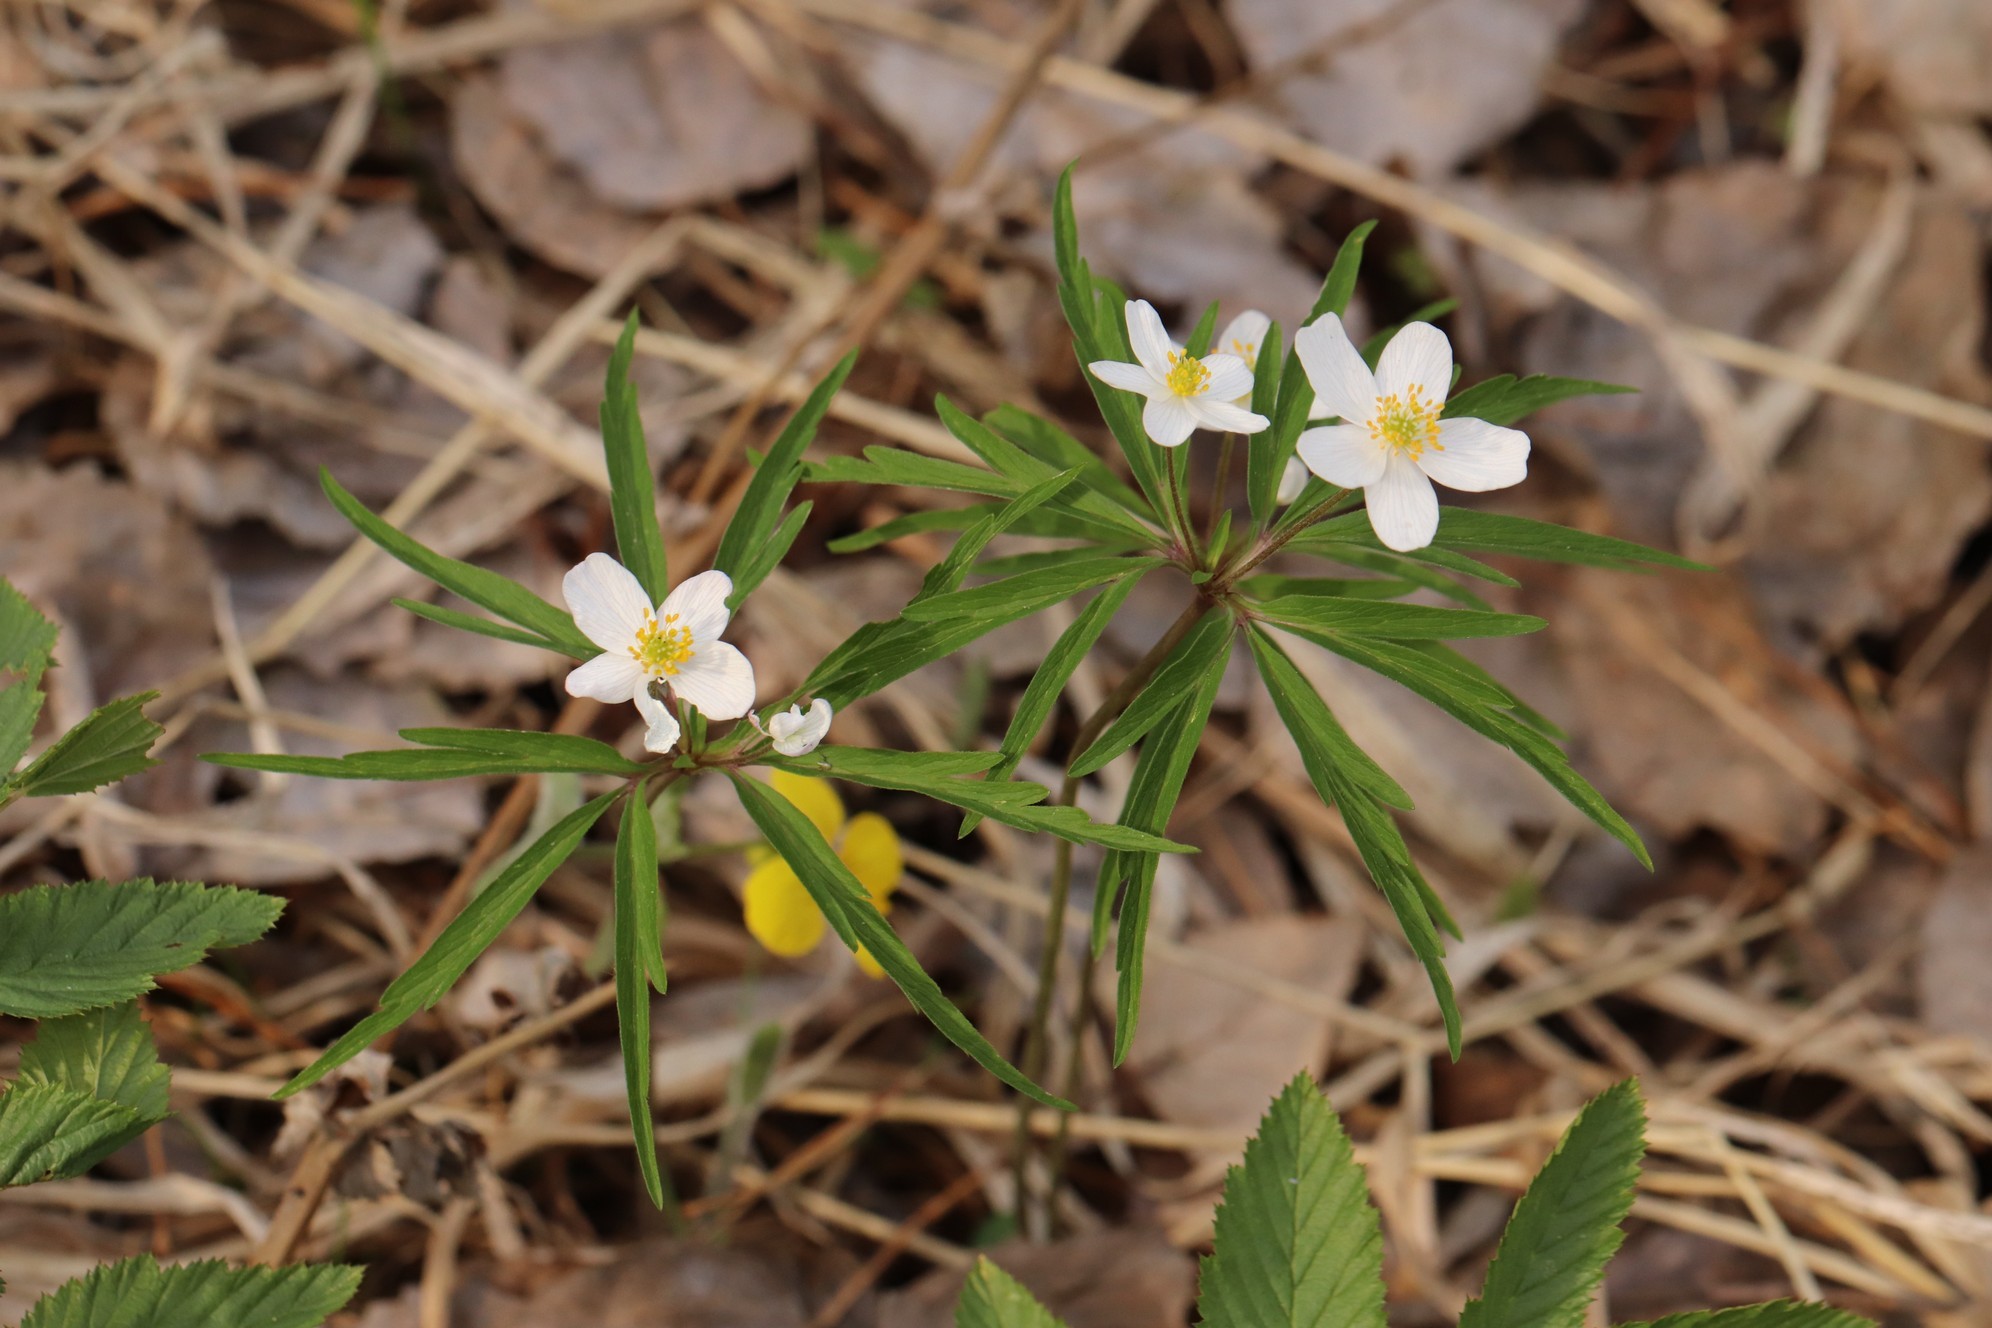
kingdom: Plantae
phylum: Tracheophyta
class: Magnoliopsida
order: Ranunculales
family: Ranunculaceae
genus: Anemone
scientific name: Anemone caerulea
